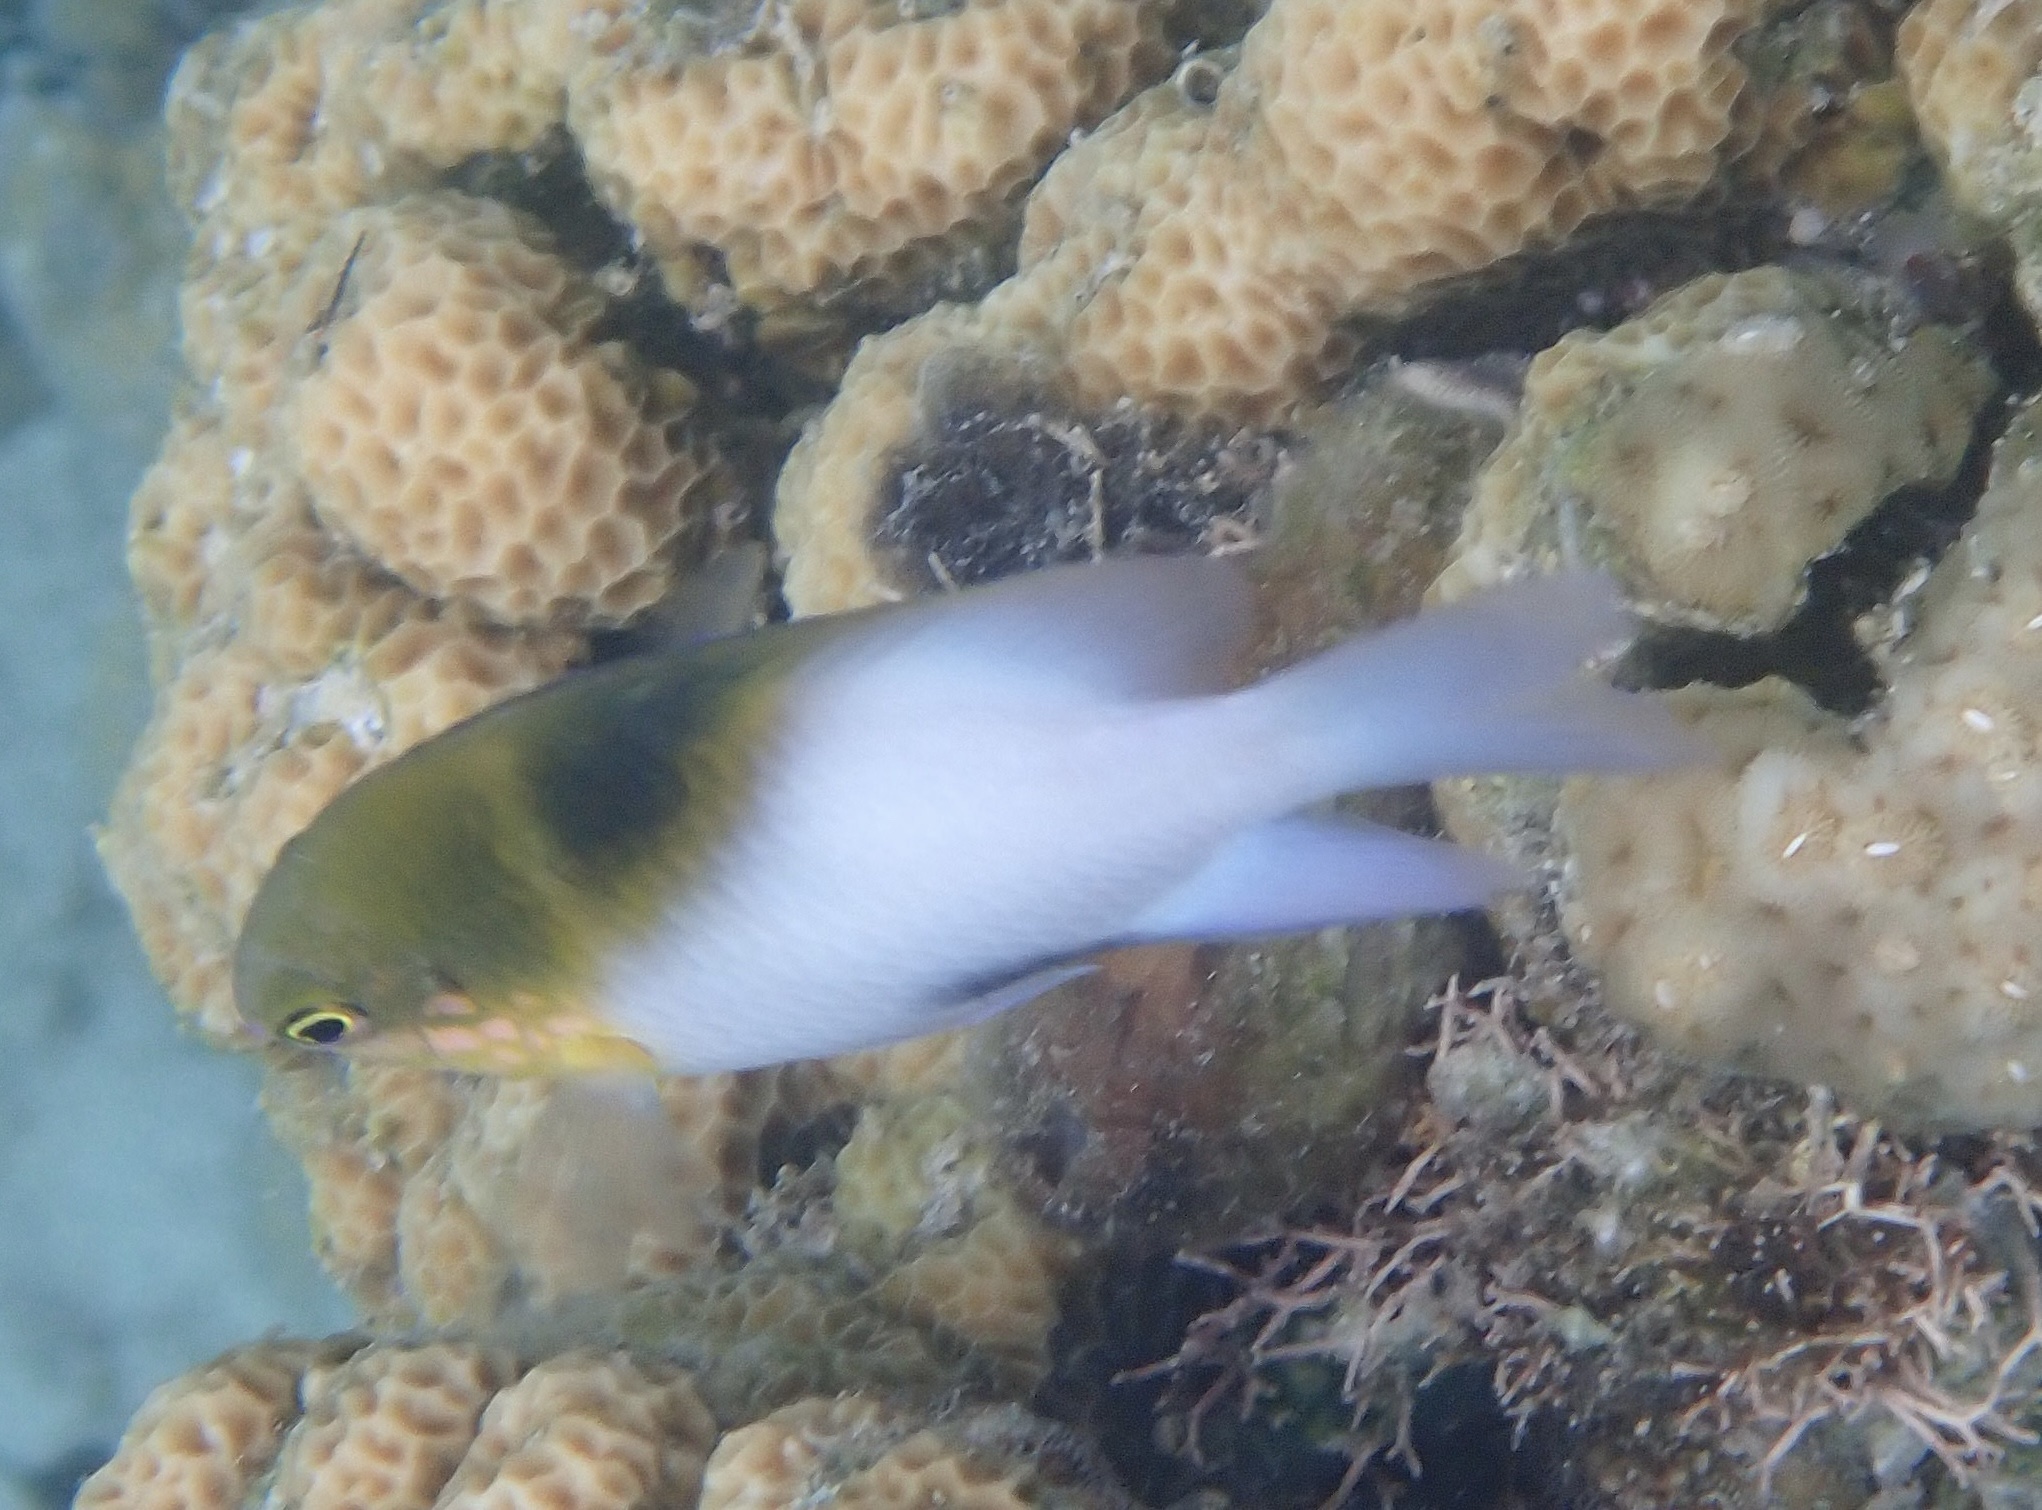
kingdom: Animalia
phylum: Chordata
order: Perciformes
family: Pomacentridae
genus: Dischistodus
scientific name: Dischistodus melanotus
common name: Black-vent damsel
